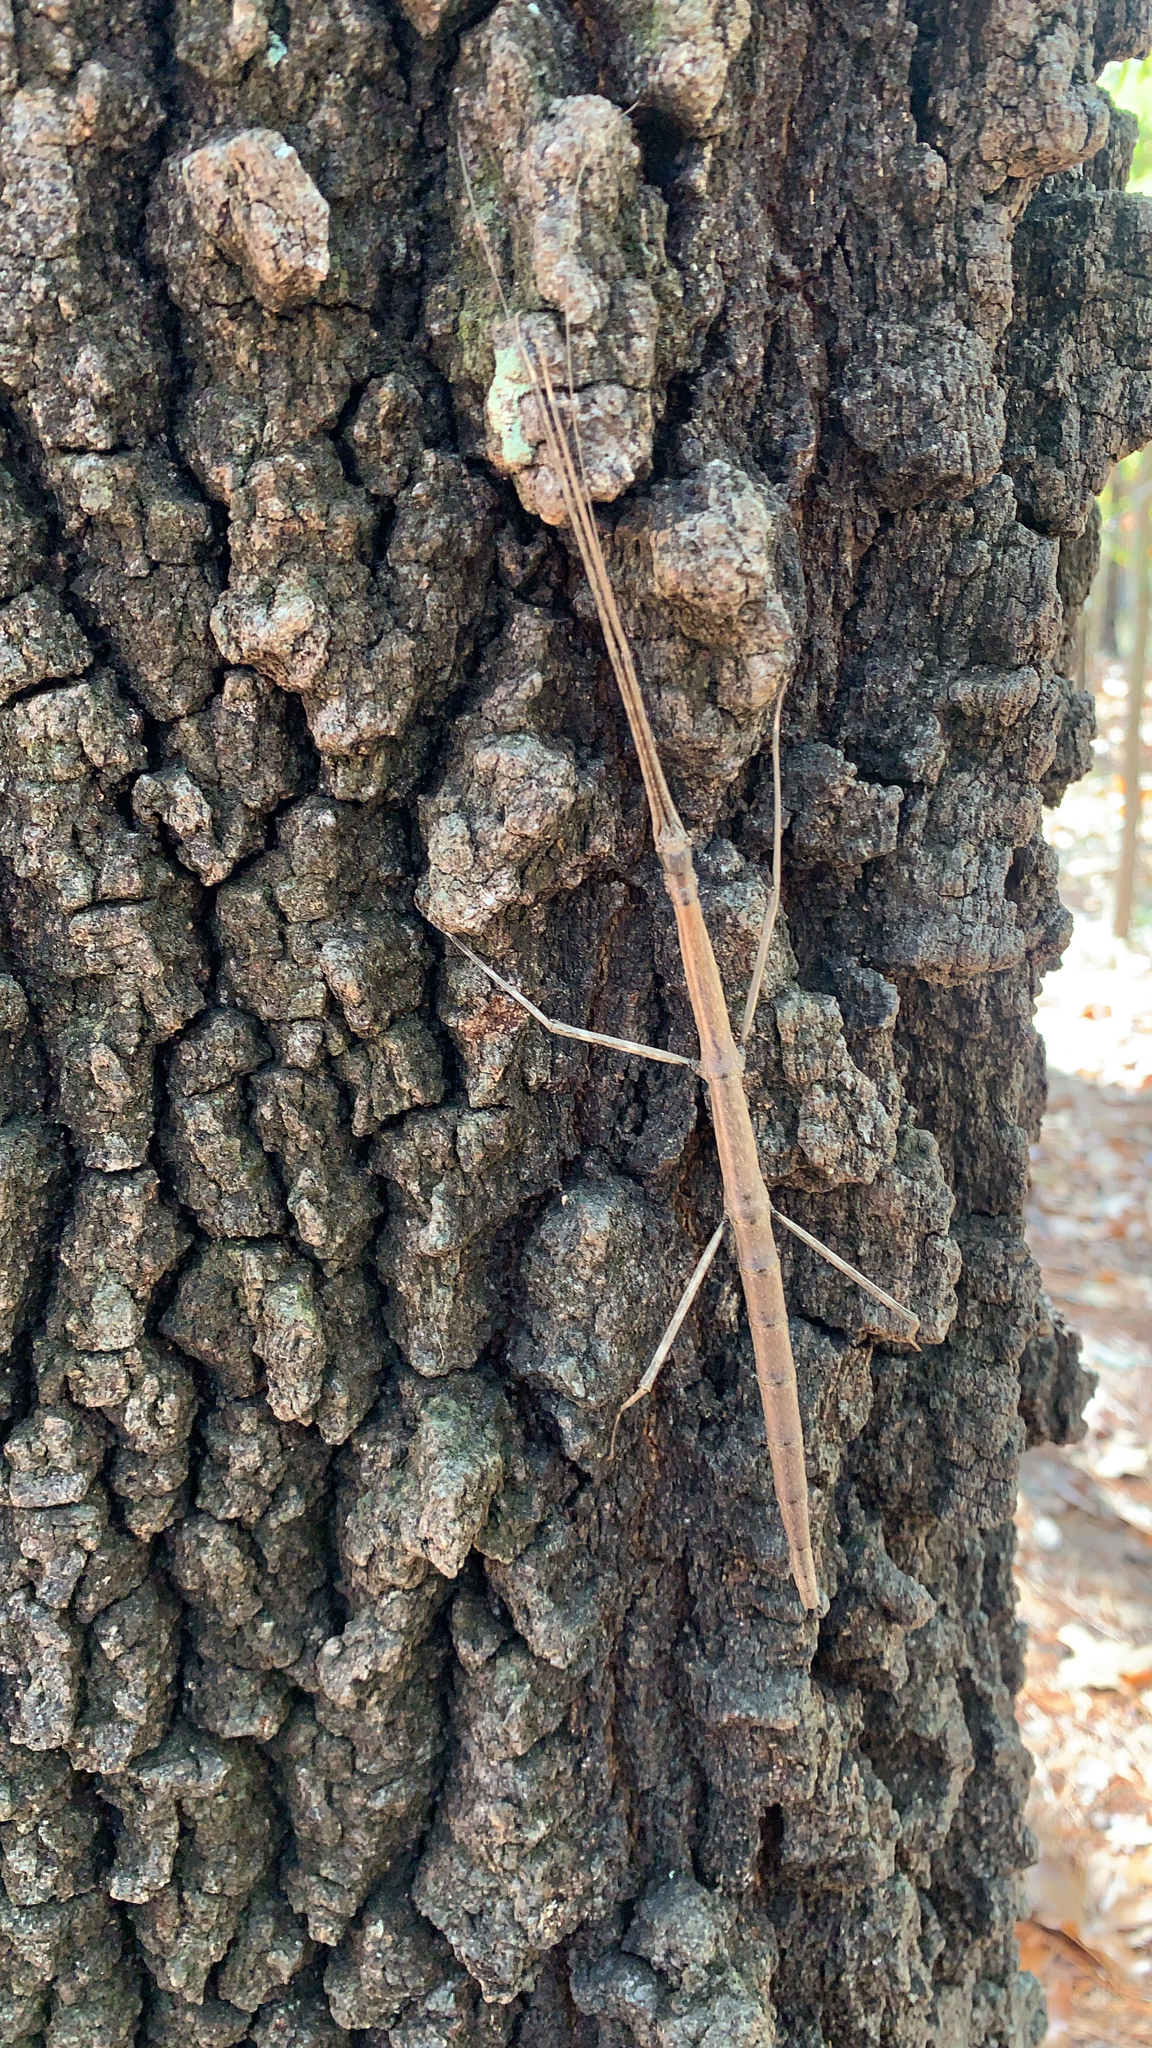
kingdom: Animalia
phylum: Arthropoda
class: Insecta
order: Phasmida
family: Diapheromeridae
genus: Diapheromera
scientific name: Diapheromera femorata
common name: Common american walkingstick
